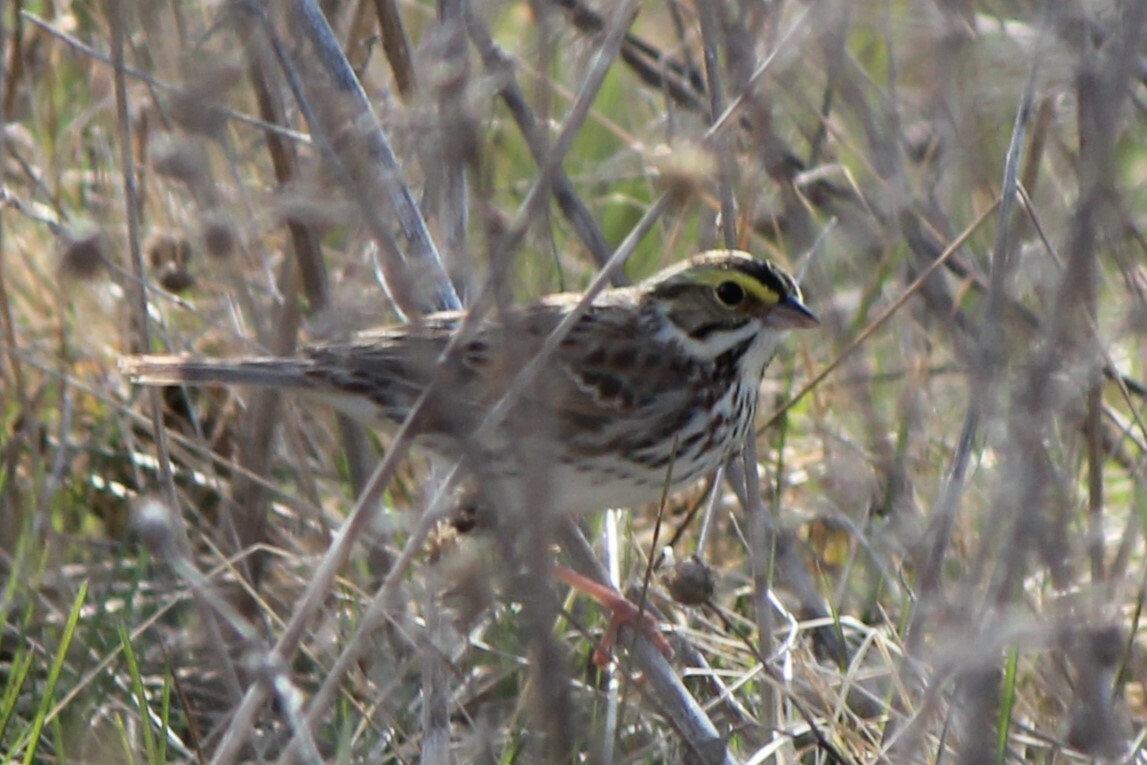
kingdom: Animalia
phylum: Chordata
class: Aves
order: Passeriformes
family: Passerellidae
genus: Passerculus
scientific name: Passerculus sandwichensis
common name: Savannah sparrow
